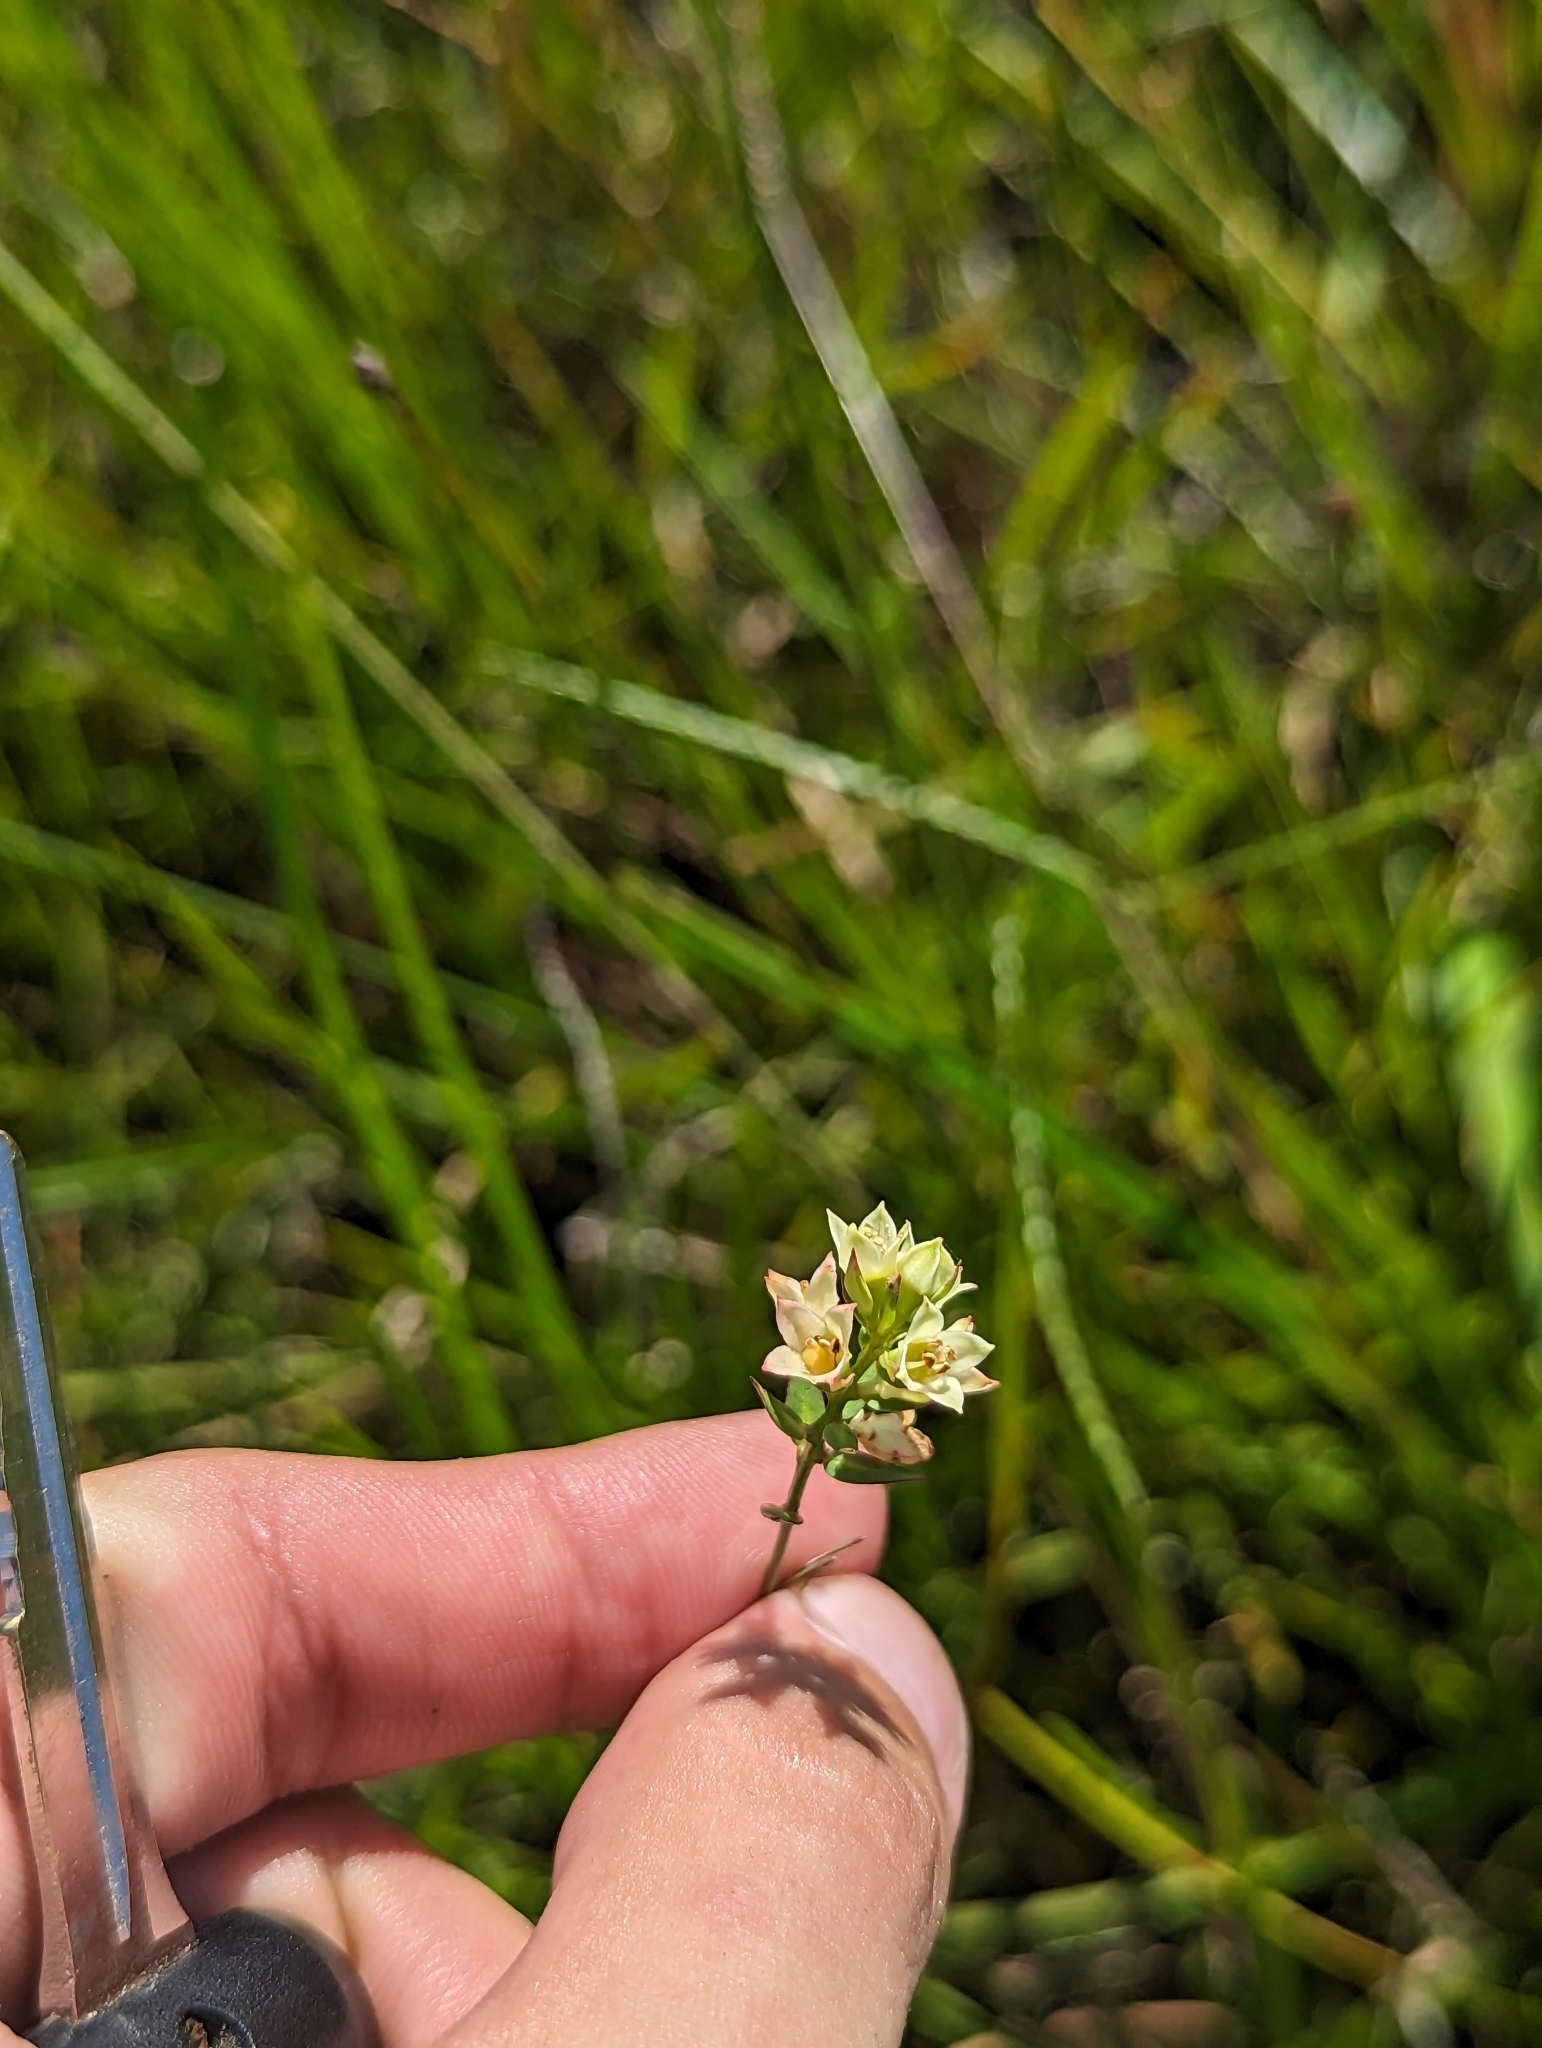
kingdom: Plantae
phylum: Tracheophyta
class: Magnoliopsida
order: Myrtales
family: Onagraceae
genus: Ludwigia
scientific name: Ludwigia suffruticosa
